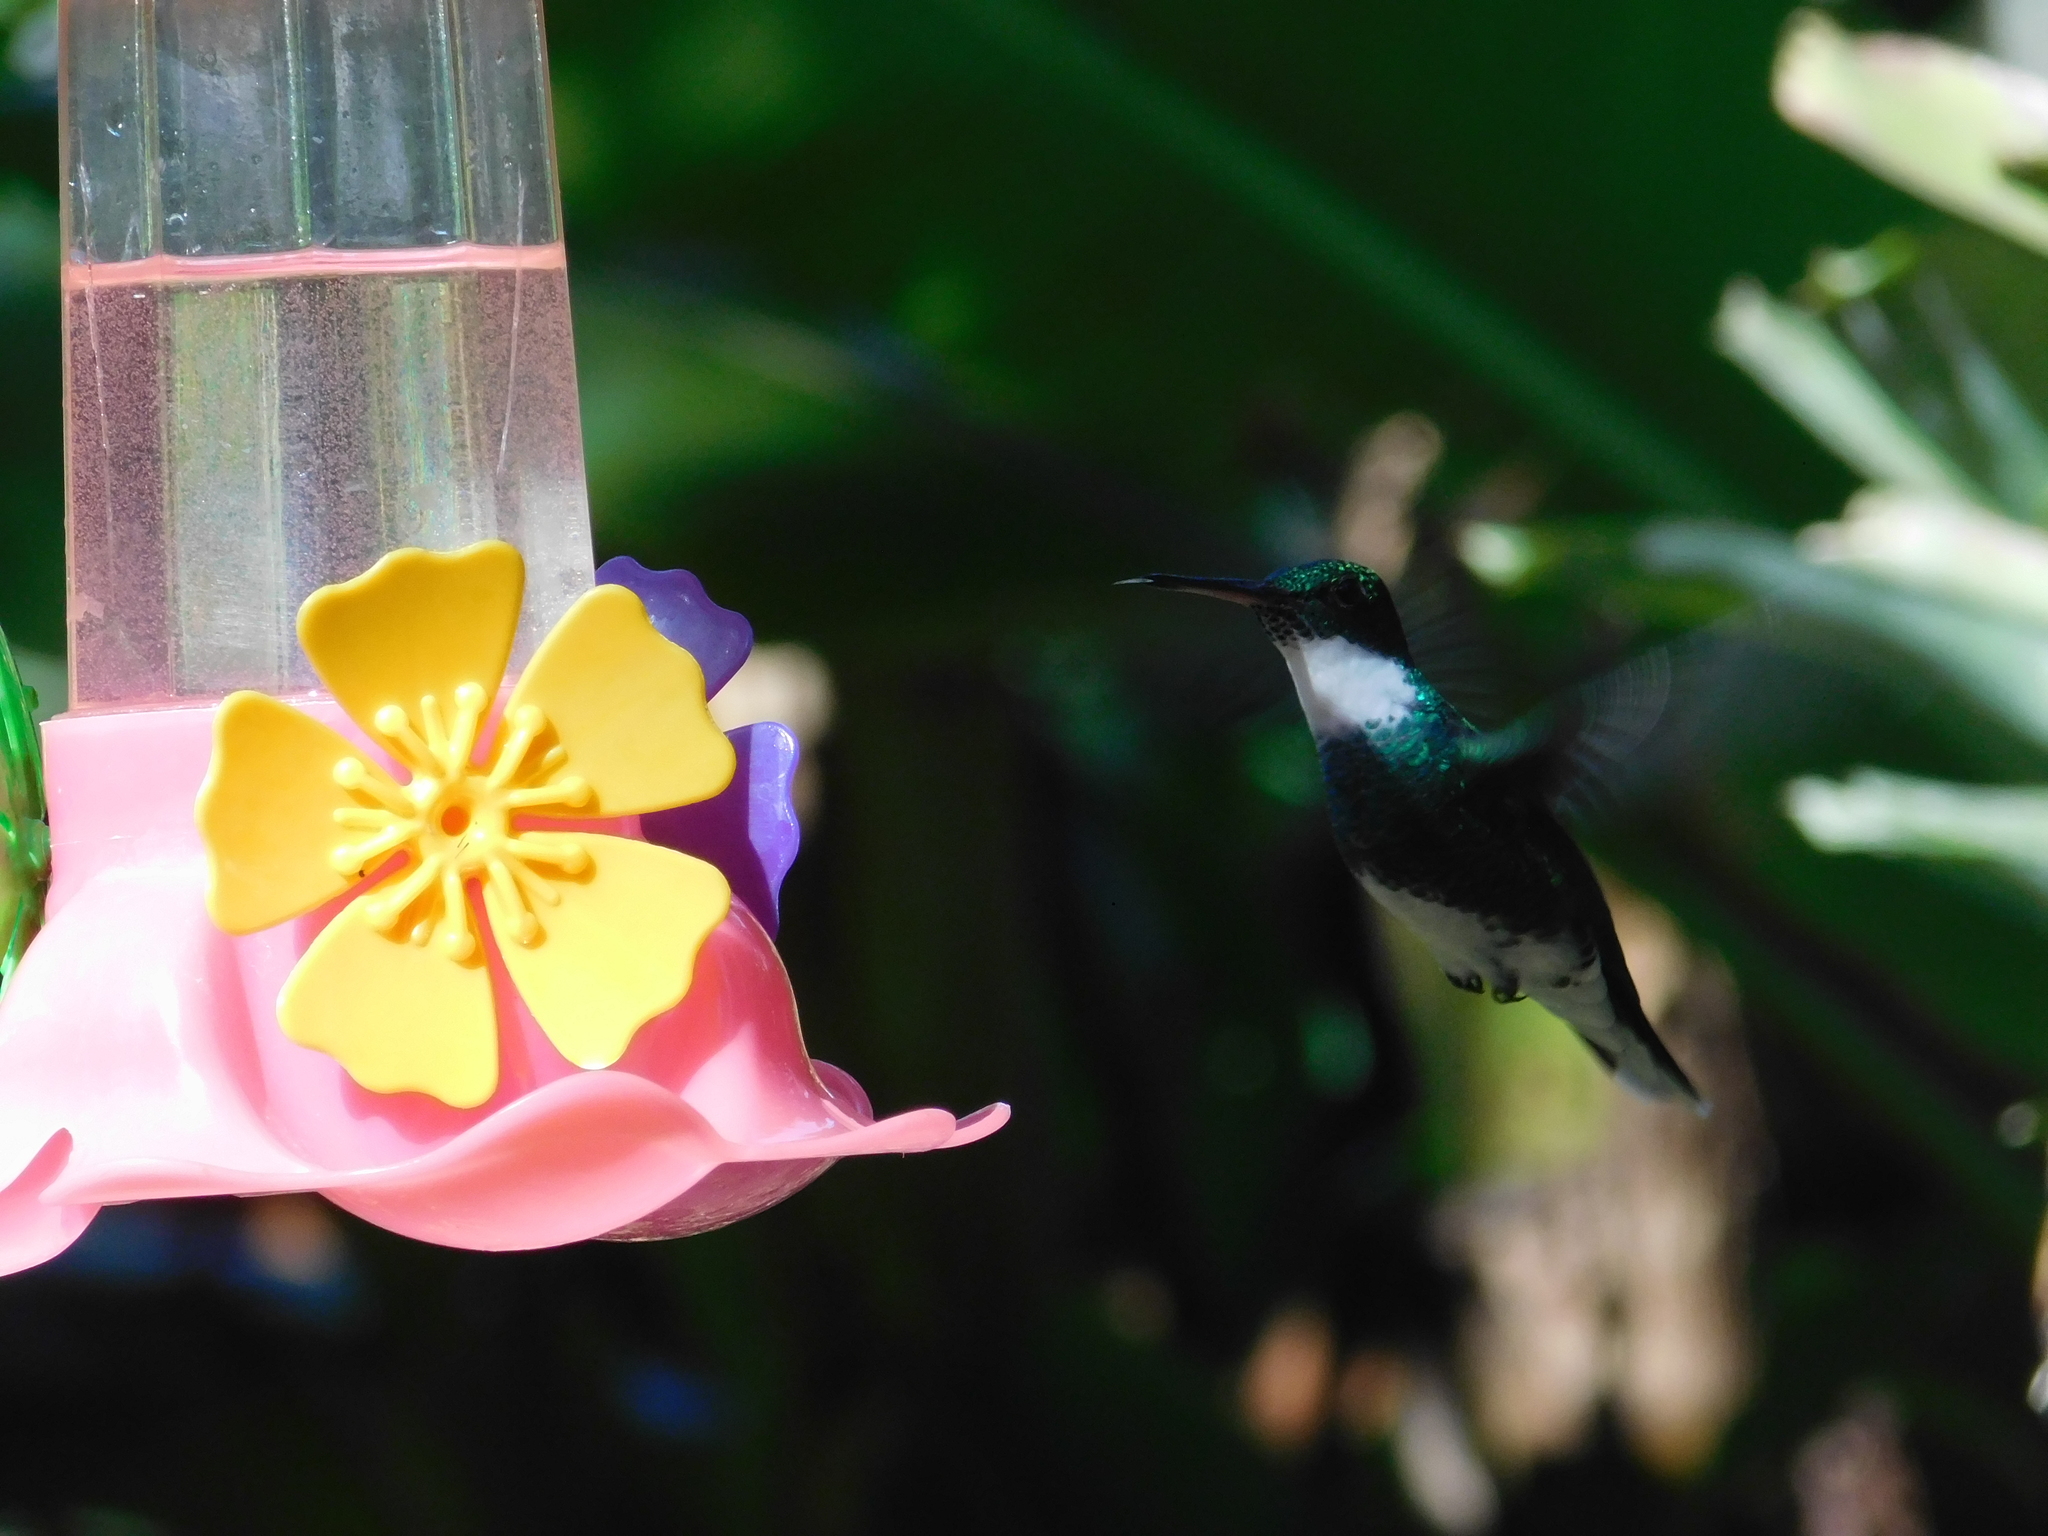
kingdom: Animalia
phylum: Chordata
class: Aves
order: Apodiformes
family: Trochilidae
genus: Leucochloris
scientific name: Leucochloris albicollis
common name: White-throated hummingbird
